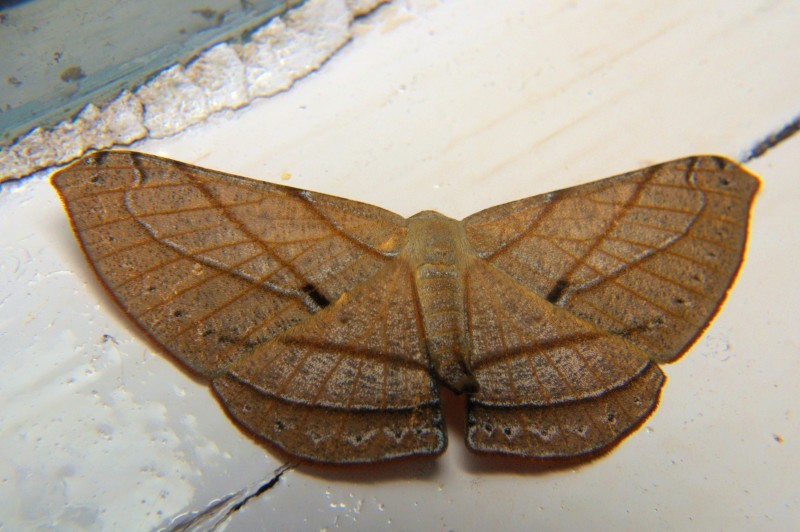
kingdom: Animalia
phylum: Arthropoda
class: Insecta
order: Lepidoptera
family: Geometridae
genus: Dalima
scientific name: Dalima patularia
